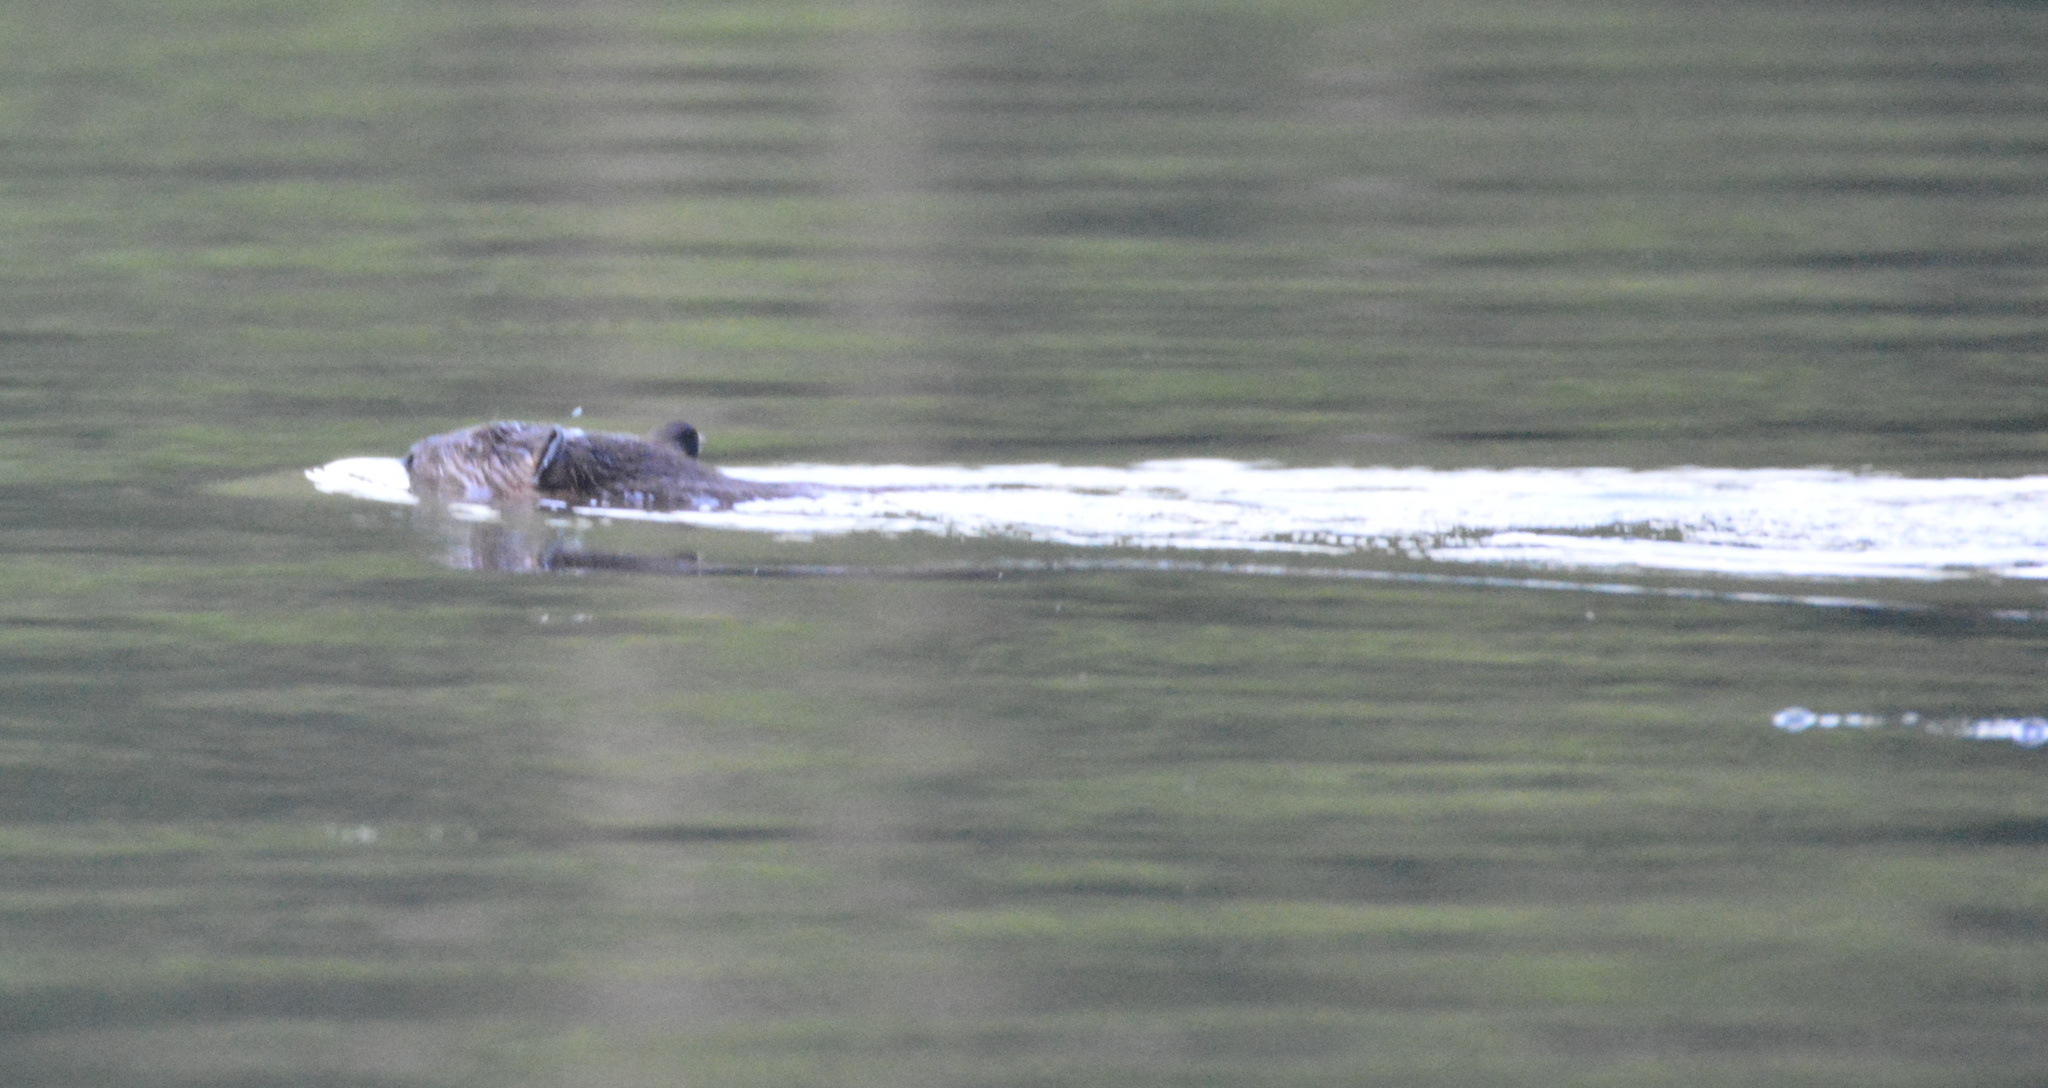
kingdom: Animalia
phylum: Chordata
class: Mammalia
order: Rodentia
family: Castoridae
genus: Castor
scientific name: Castor canadensis
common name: American beaver
